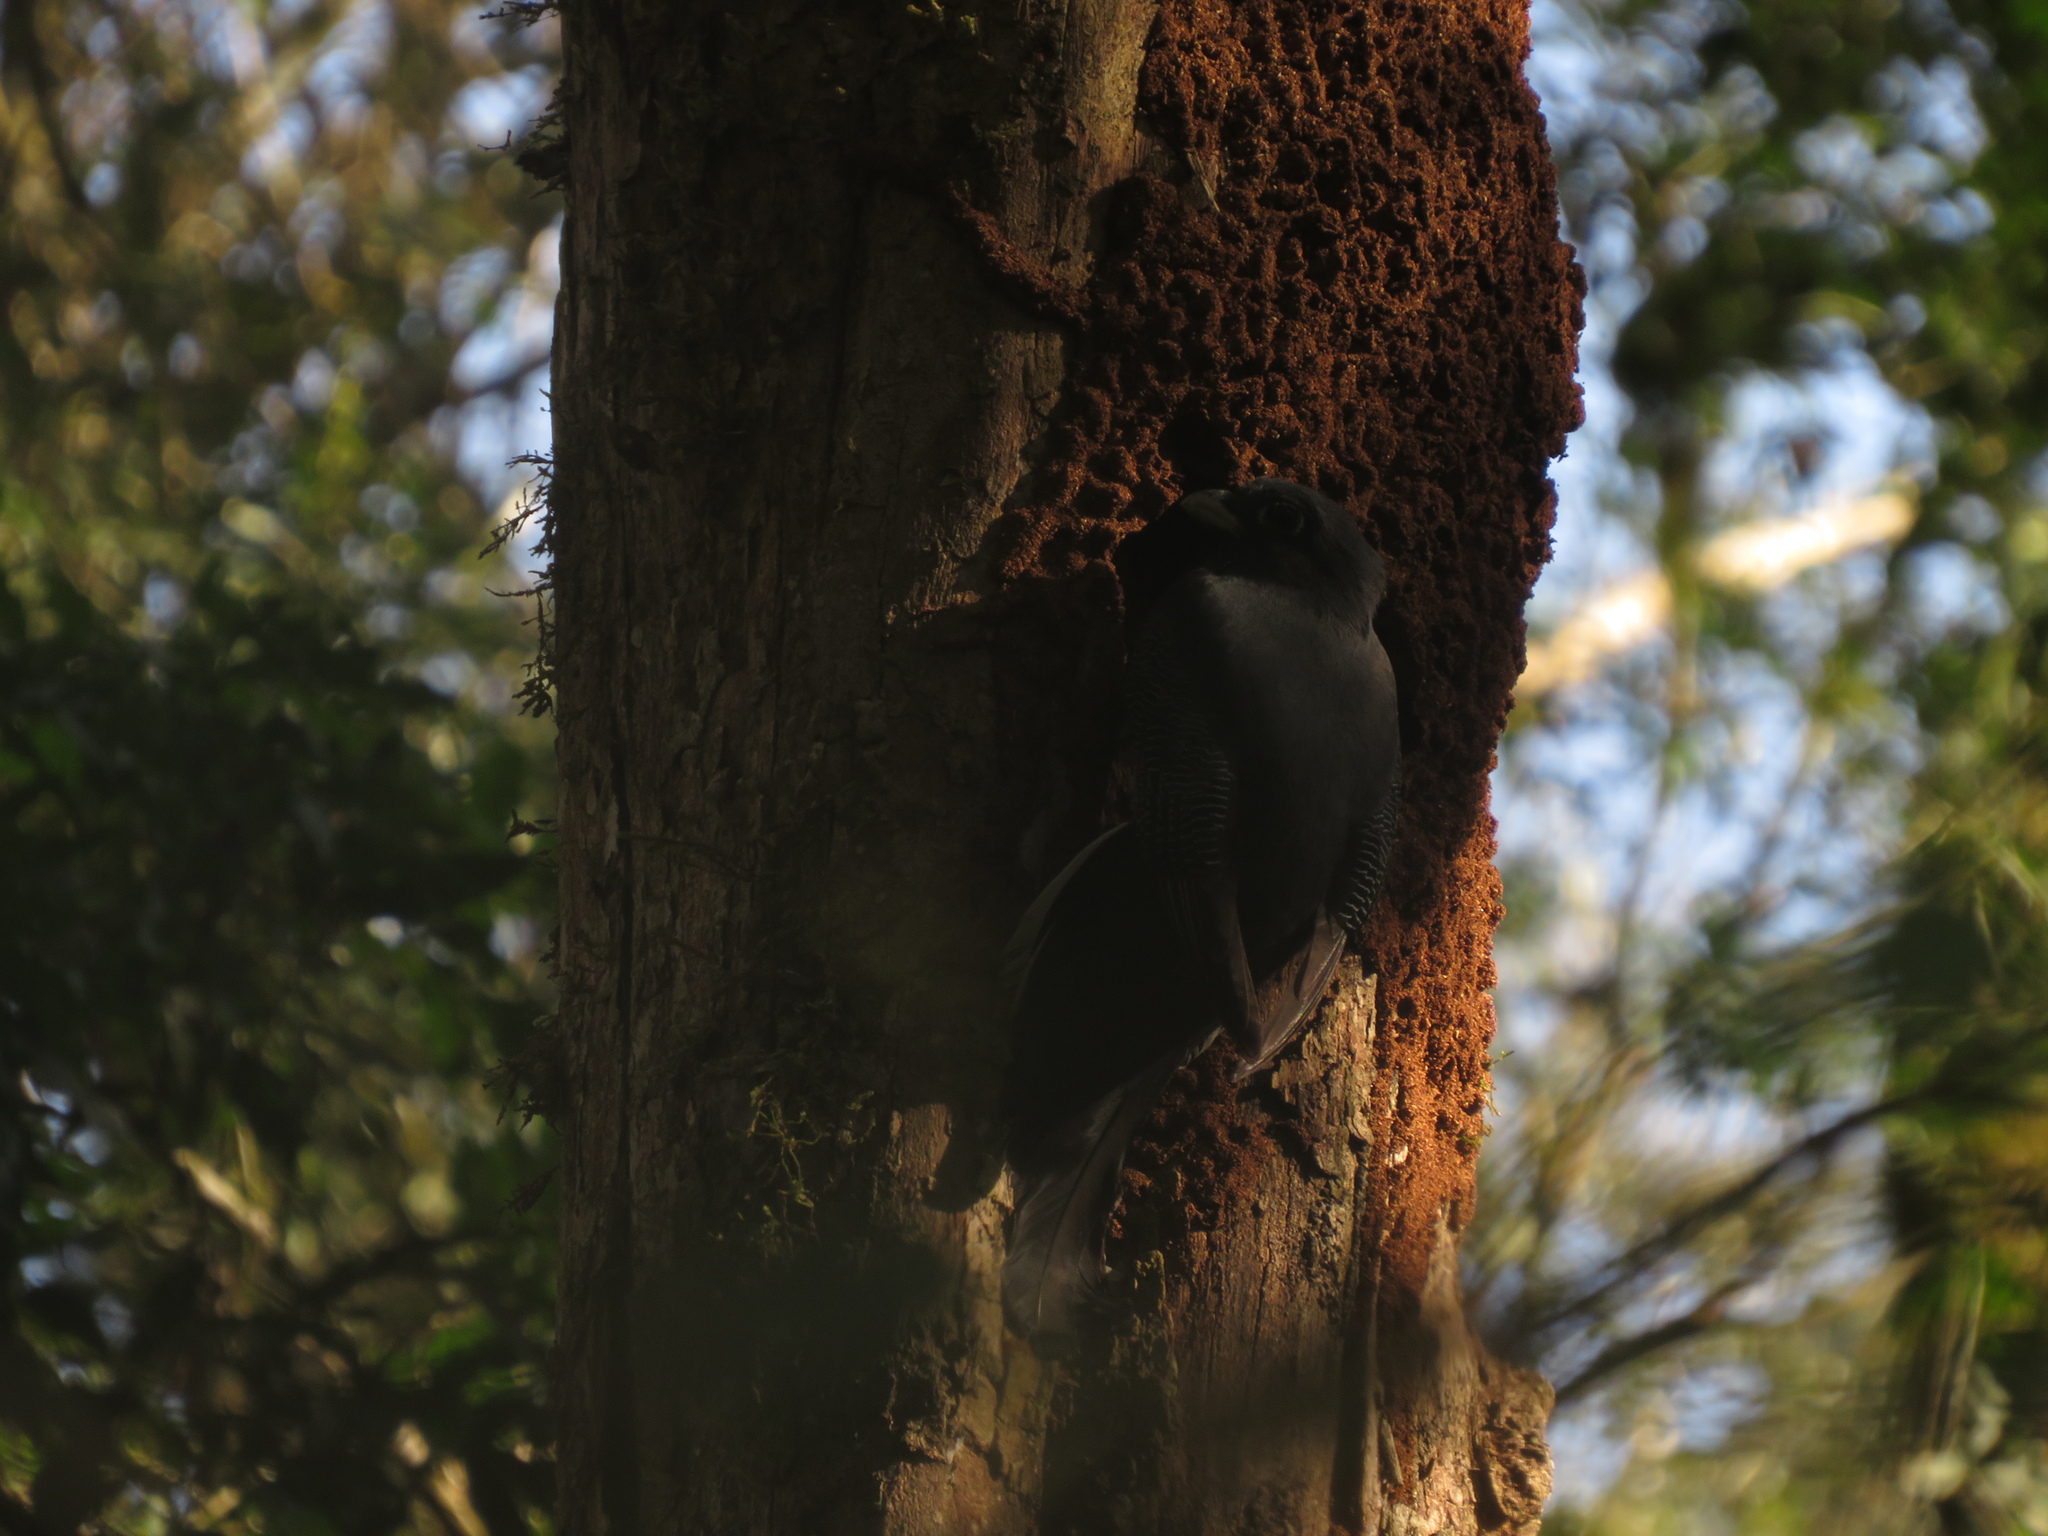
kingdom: Animalia
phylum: Chordata
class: Aves
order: Trogoniformes
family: Trogonidae
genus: Trogon
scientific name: Trogon surrucura
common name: Surucua trogon
